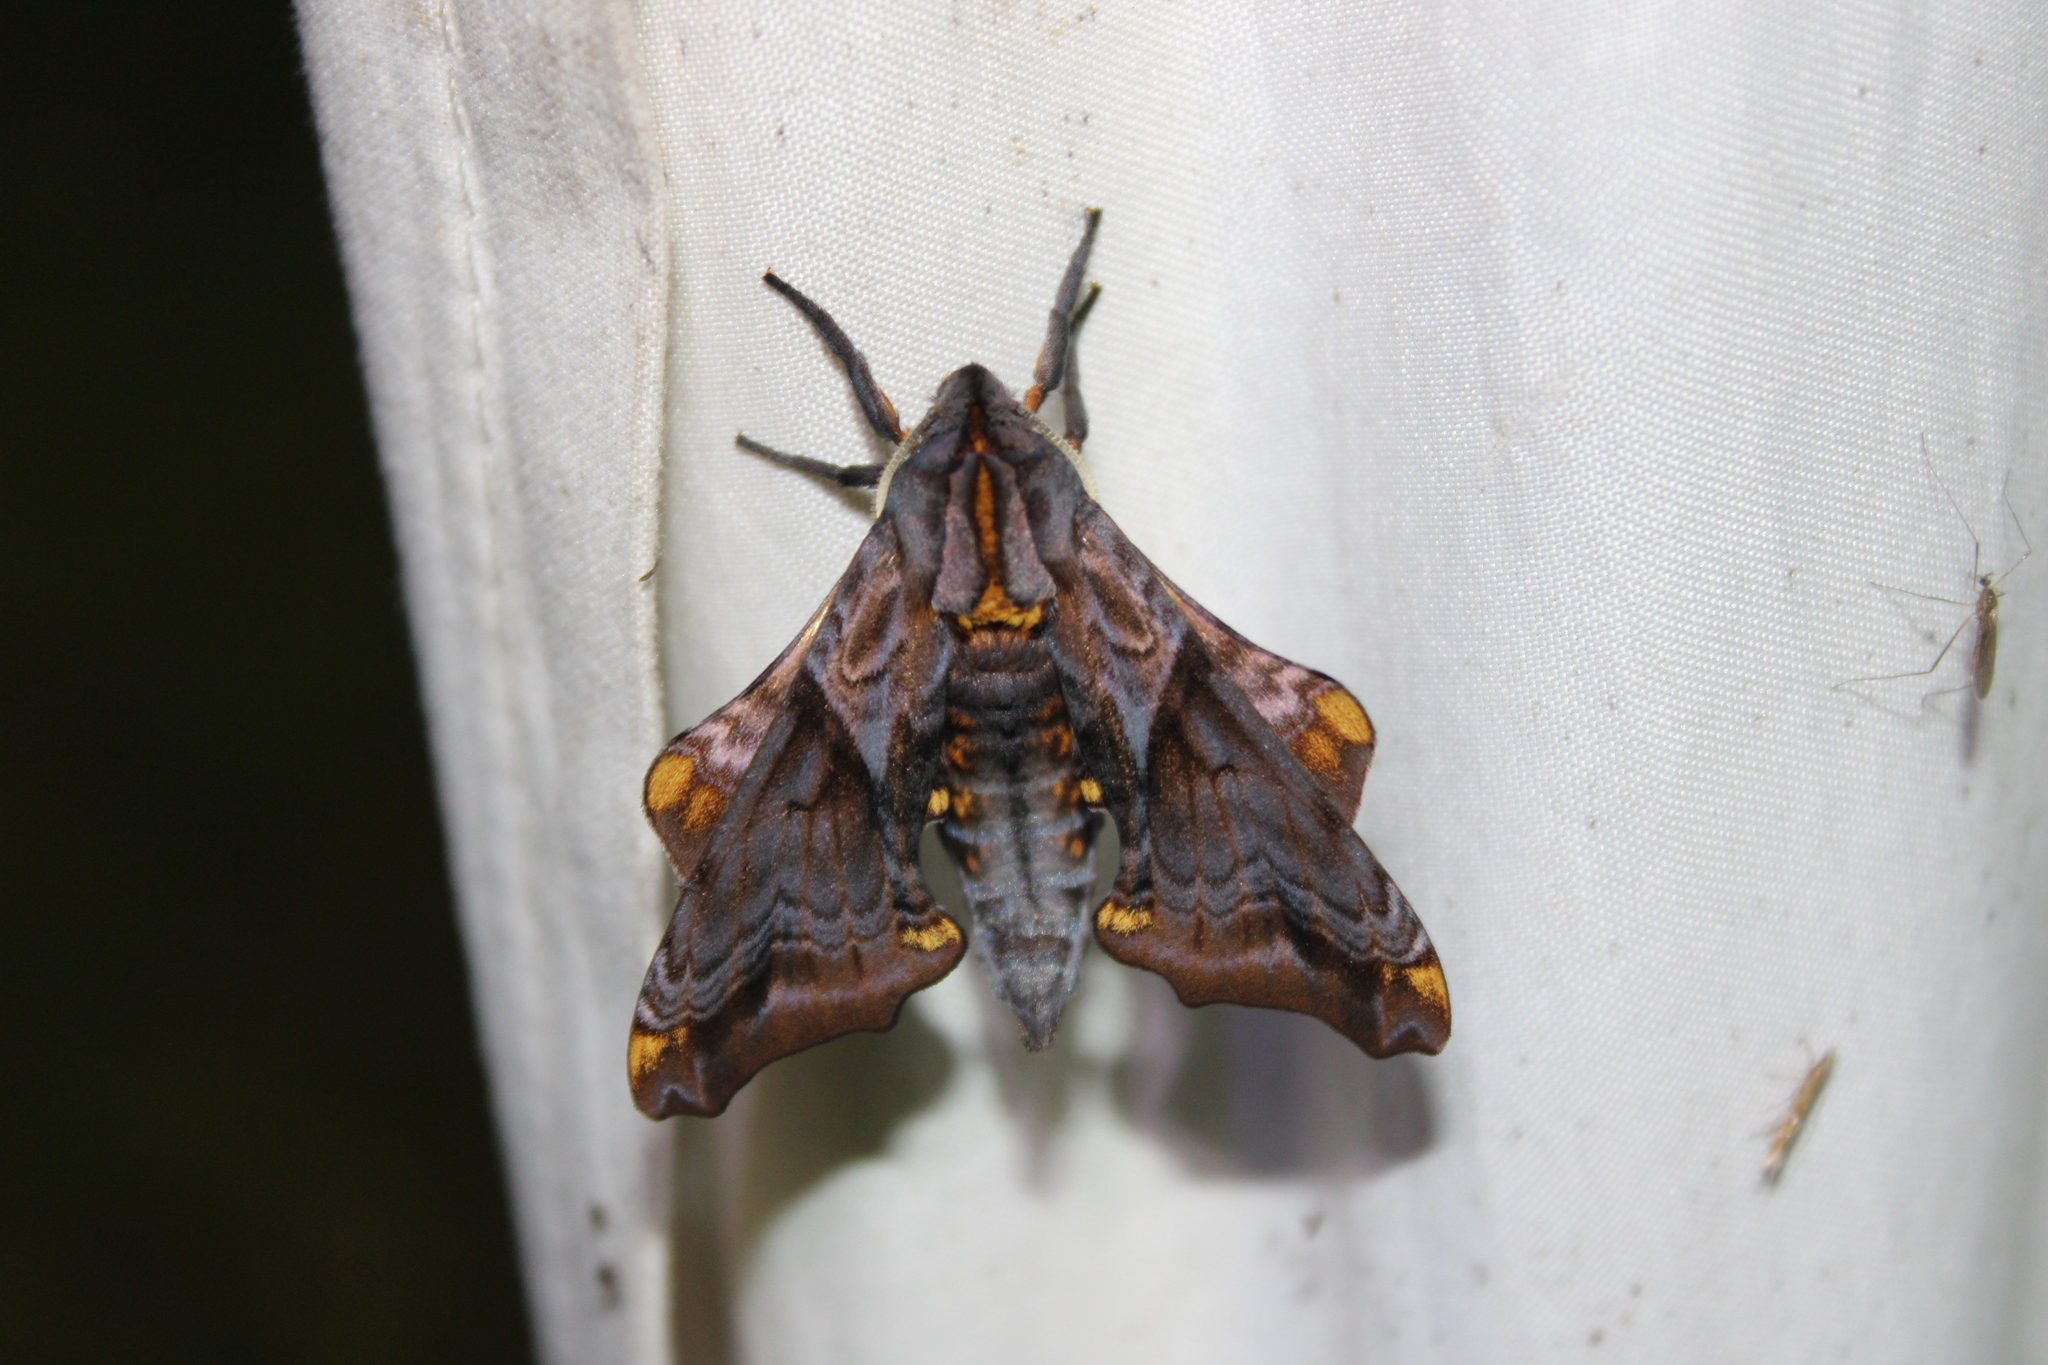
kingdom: Animalia
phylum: Arthropoda
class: Insecta
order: Lepidoptera
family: Sphingidae
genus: Paonias
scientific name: Paonias myops
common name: Small-eyed sphinx
